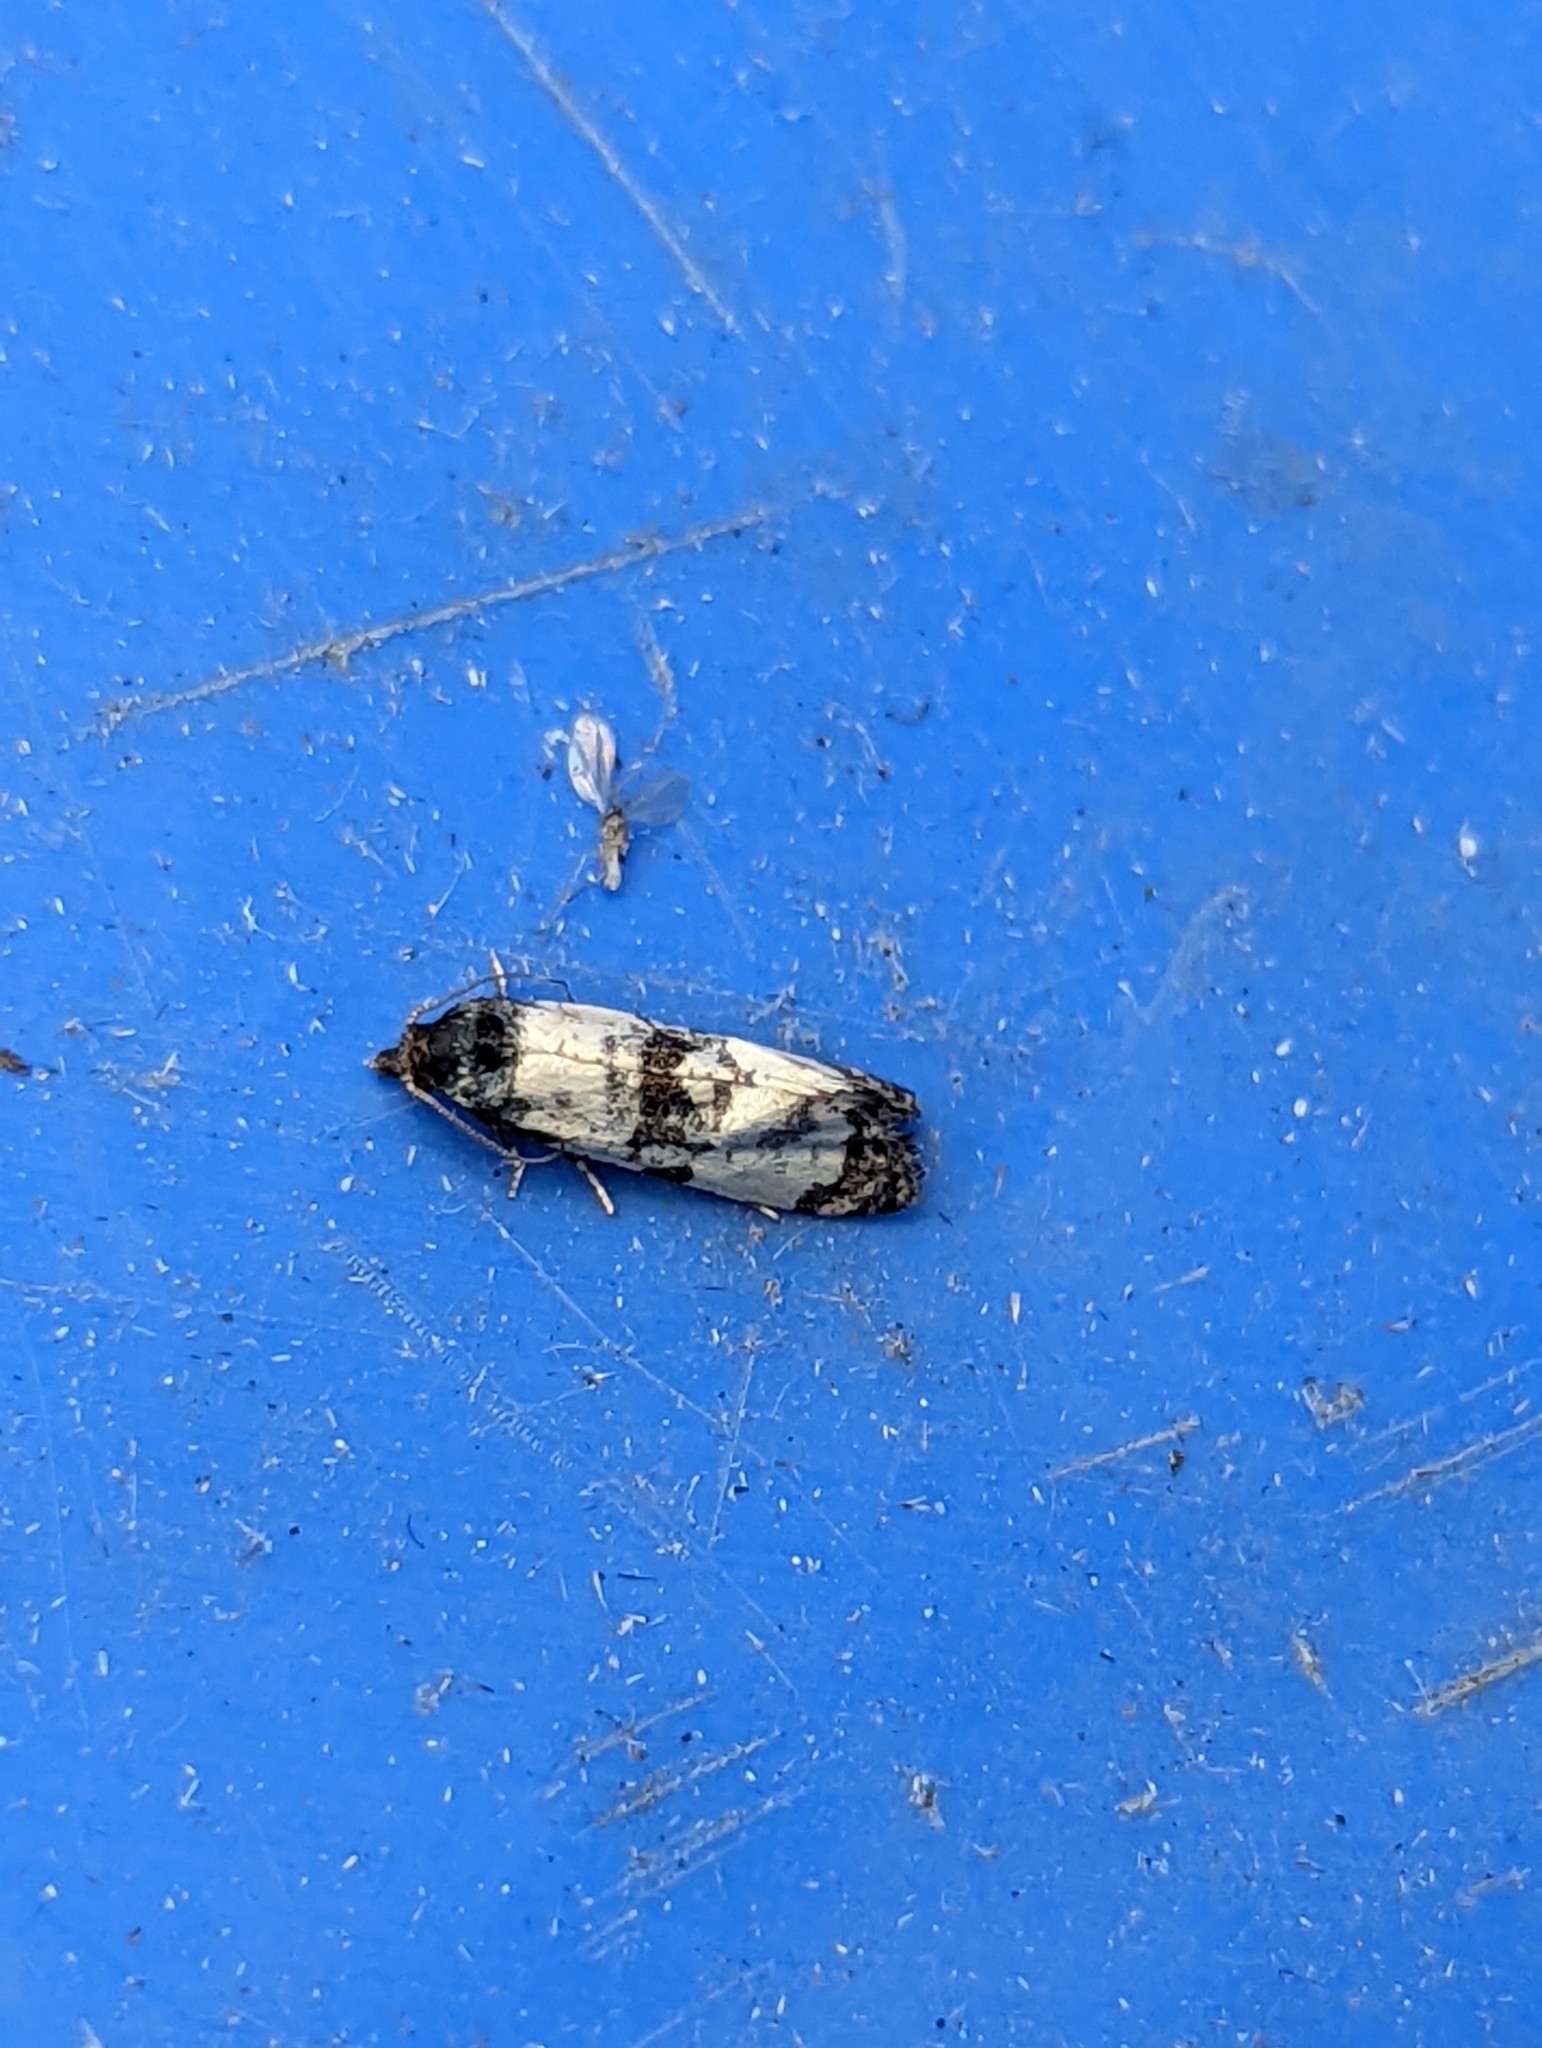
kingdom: Animalia
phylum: Arthropoda
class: Insecta
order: Lepidoptera
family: Tortricidae
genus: Cochylis
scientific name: Cochylis atricapitana
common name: Tortricid moth
